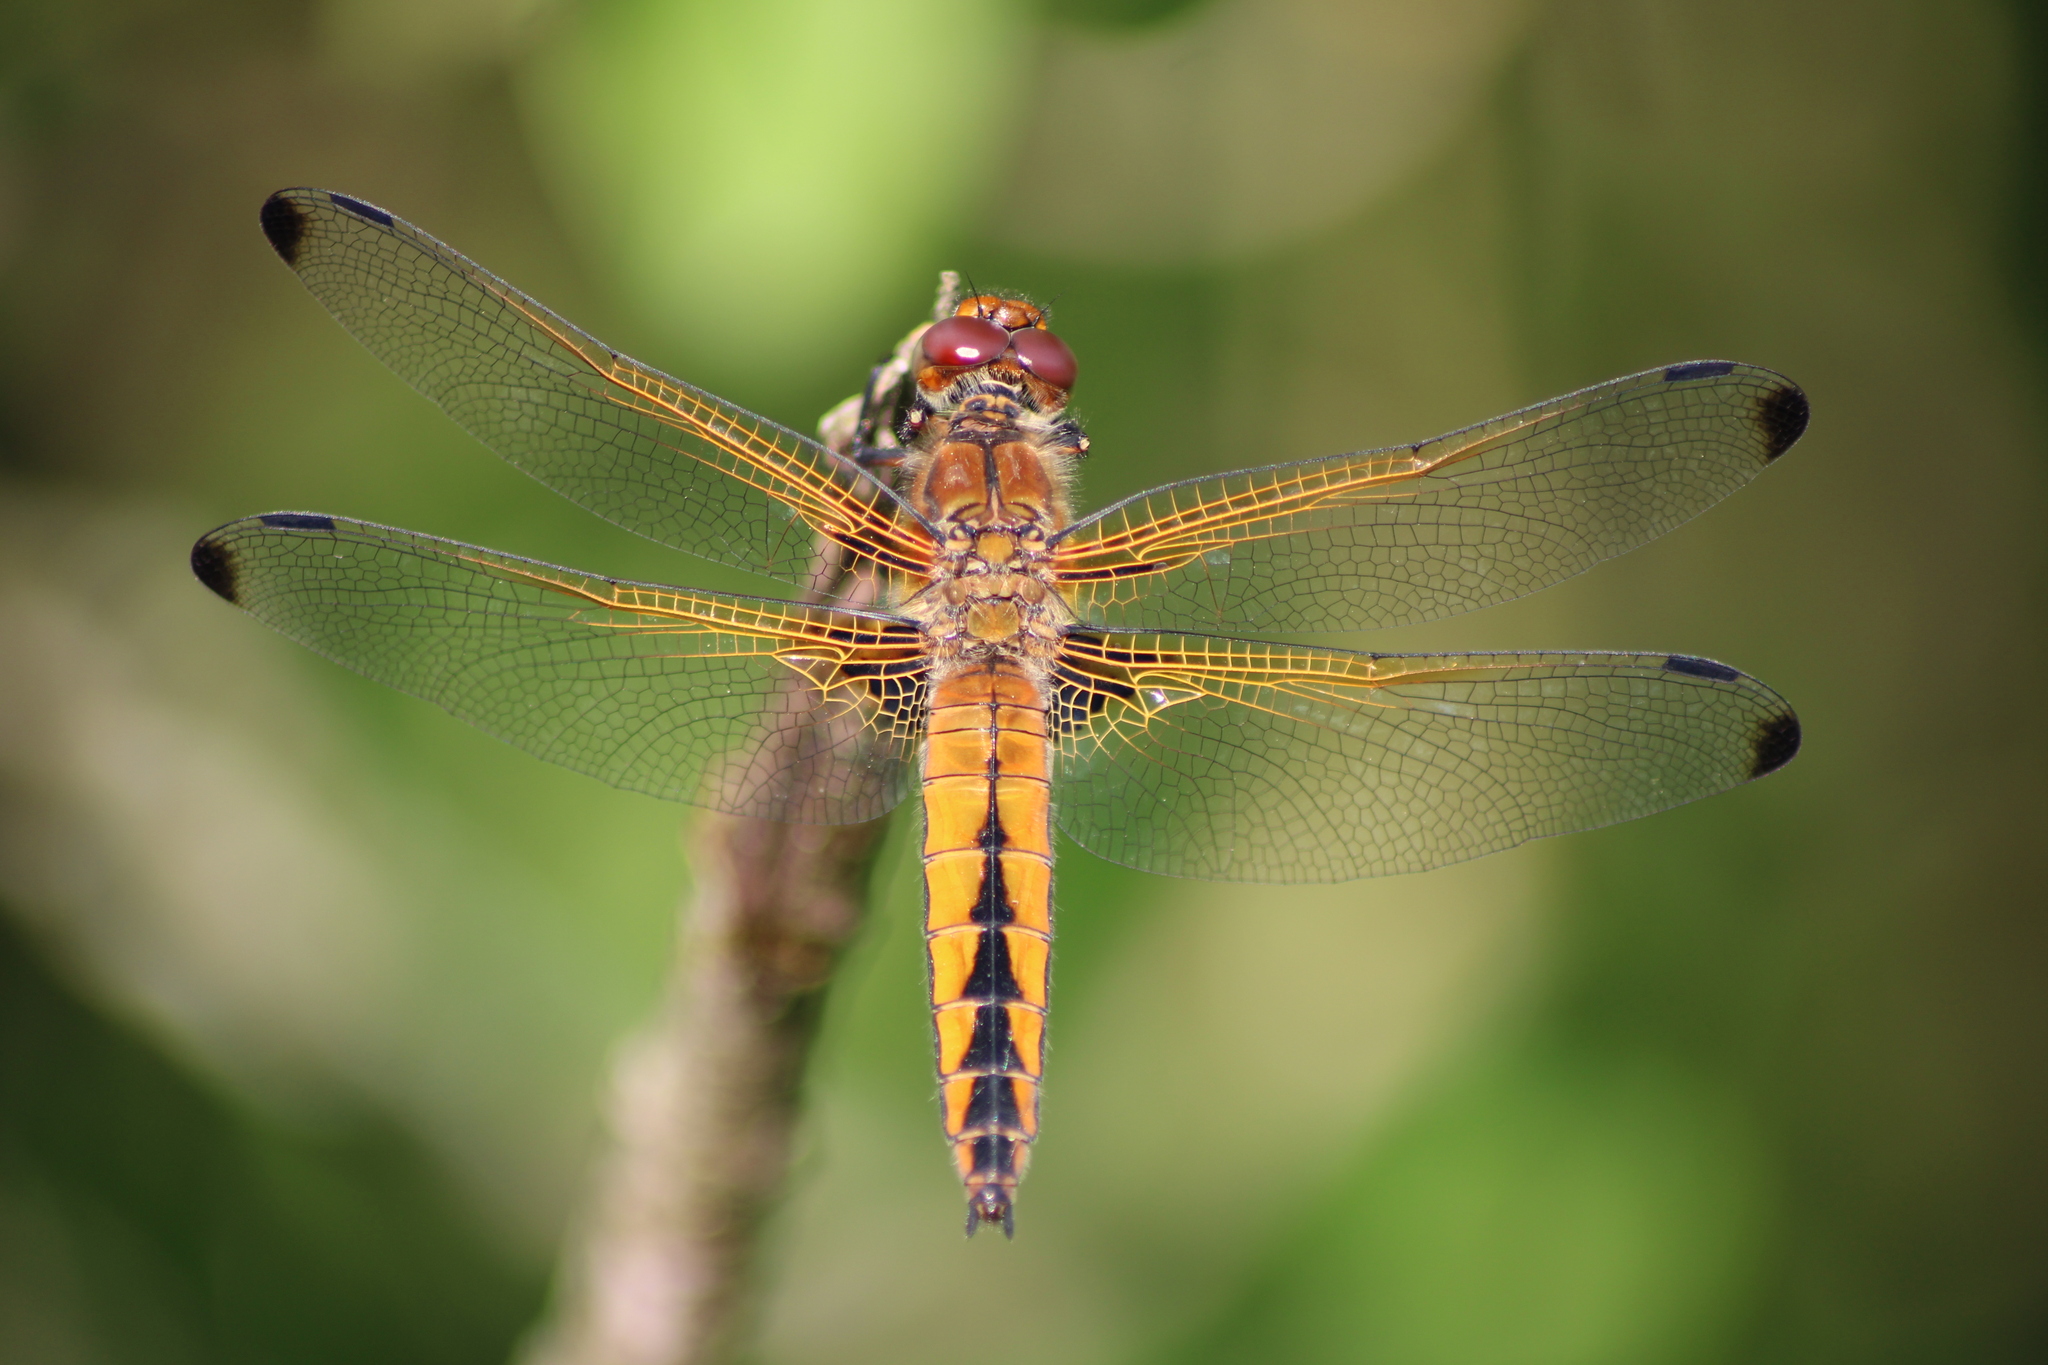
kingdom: Animalia
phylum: Arthropoda
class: Insecta
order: Odonata
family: Libellulidae
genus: Libellula
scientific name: Libellula fulva
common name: Blue chaser
